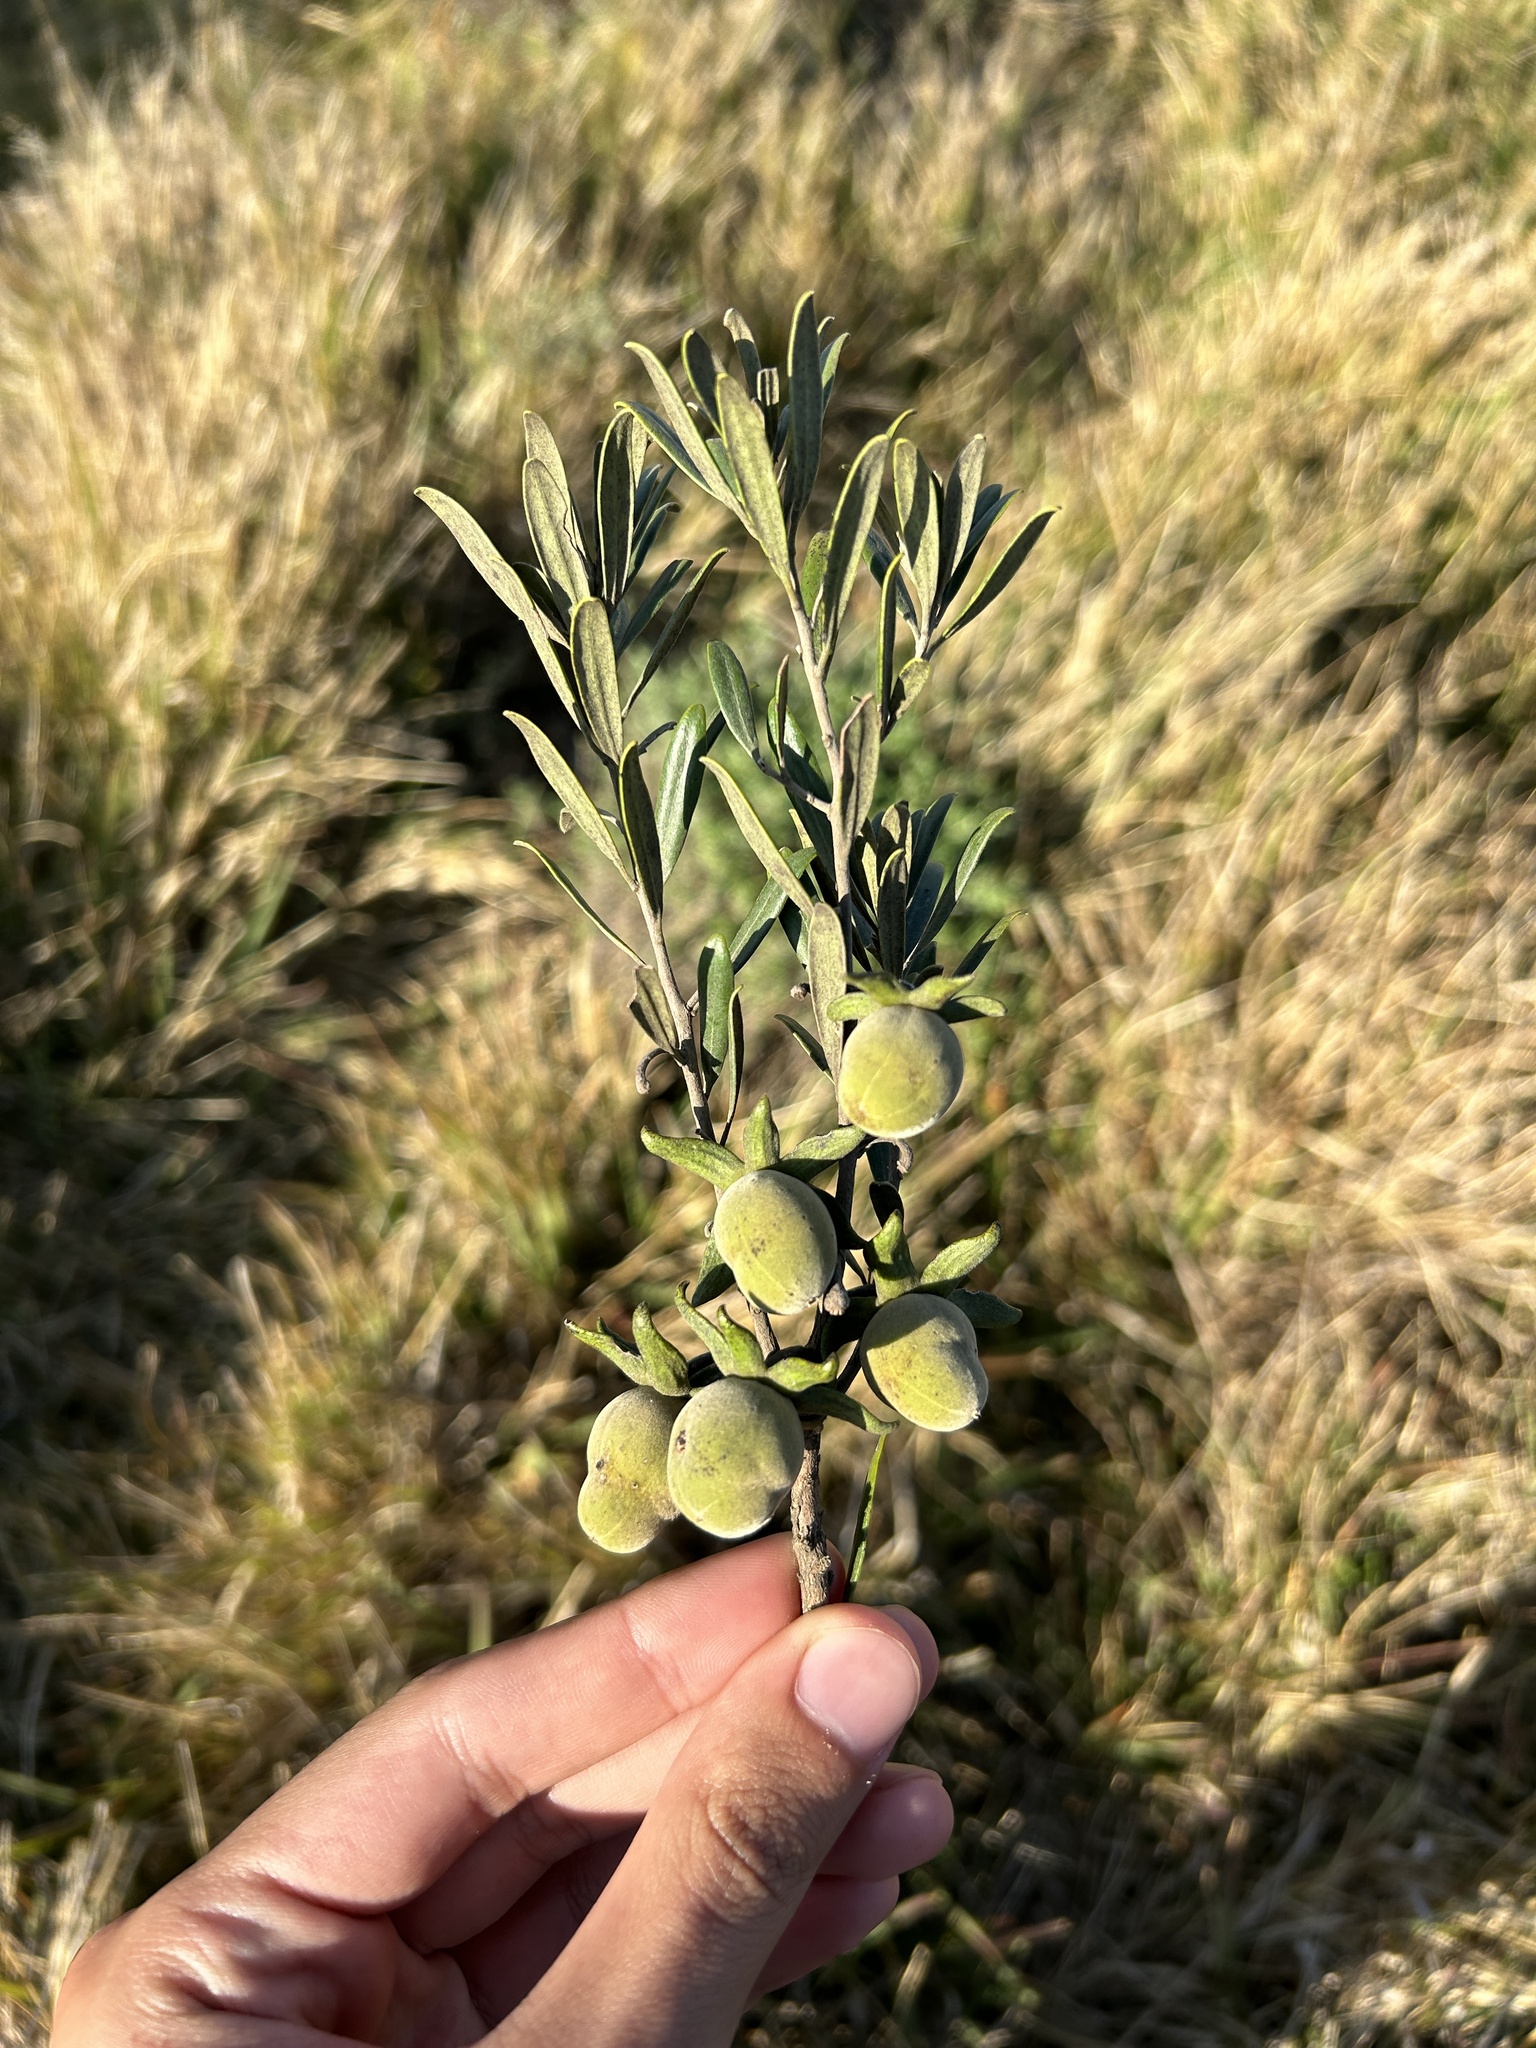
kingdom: Plantae
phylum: Tracheophyta
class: Magnoliopsida
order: Ericales
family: Ebenaceae
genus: Diospyros
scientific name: Diospyros dichrophylla
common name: Common star-apple
